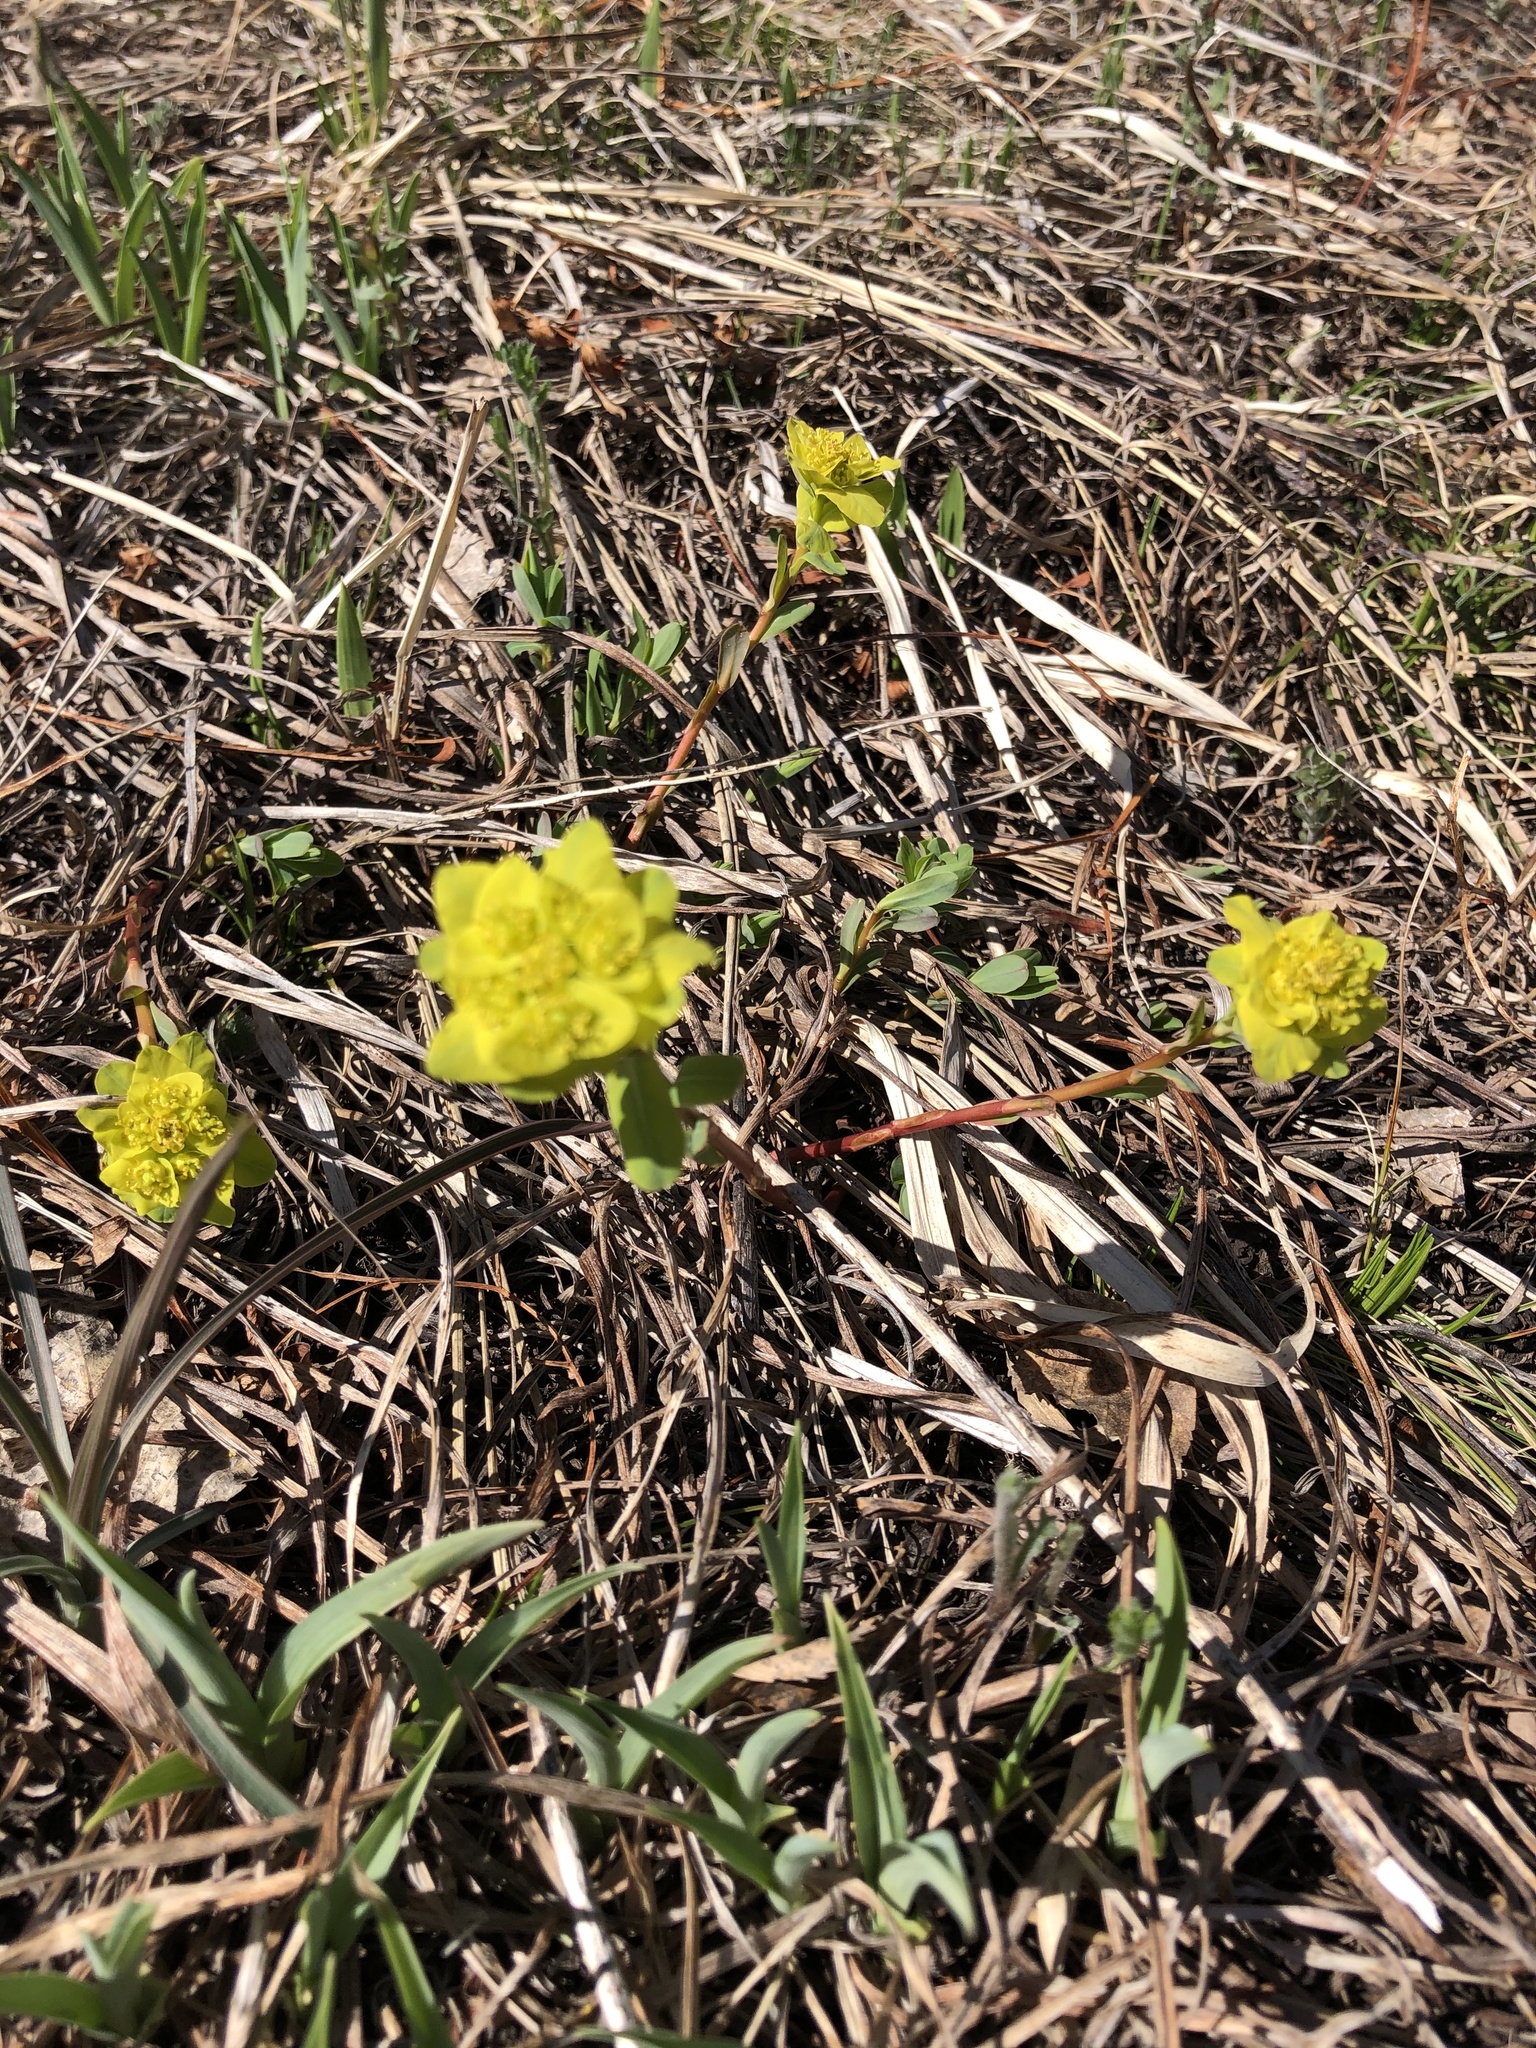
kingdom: Plantae
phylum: Tracheophyta
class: Magnoliopsida
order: Malpighiales
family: Euphorbiaceae
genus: Euphorbia
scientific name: Euphorbia altaica
